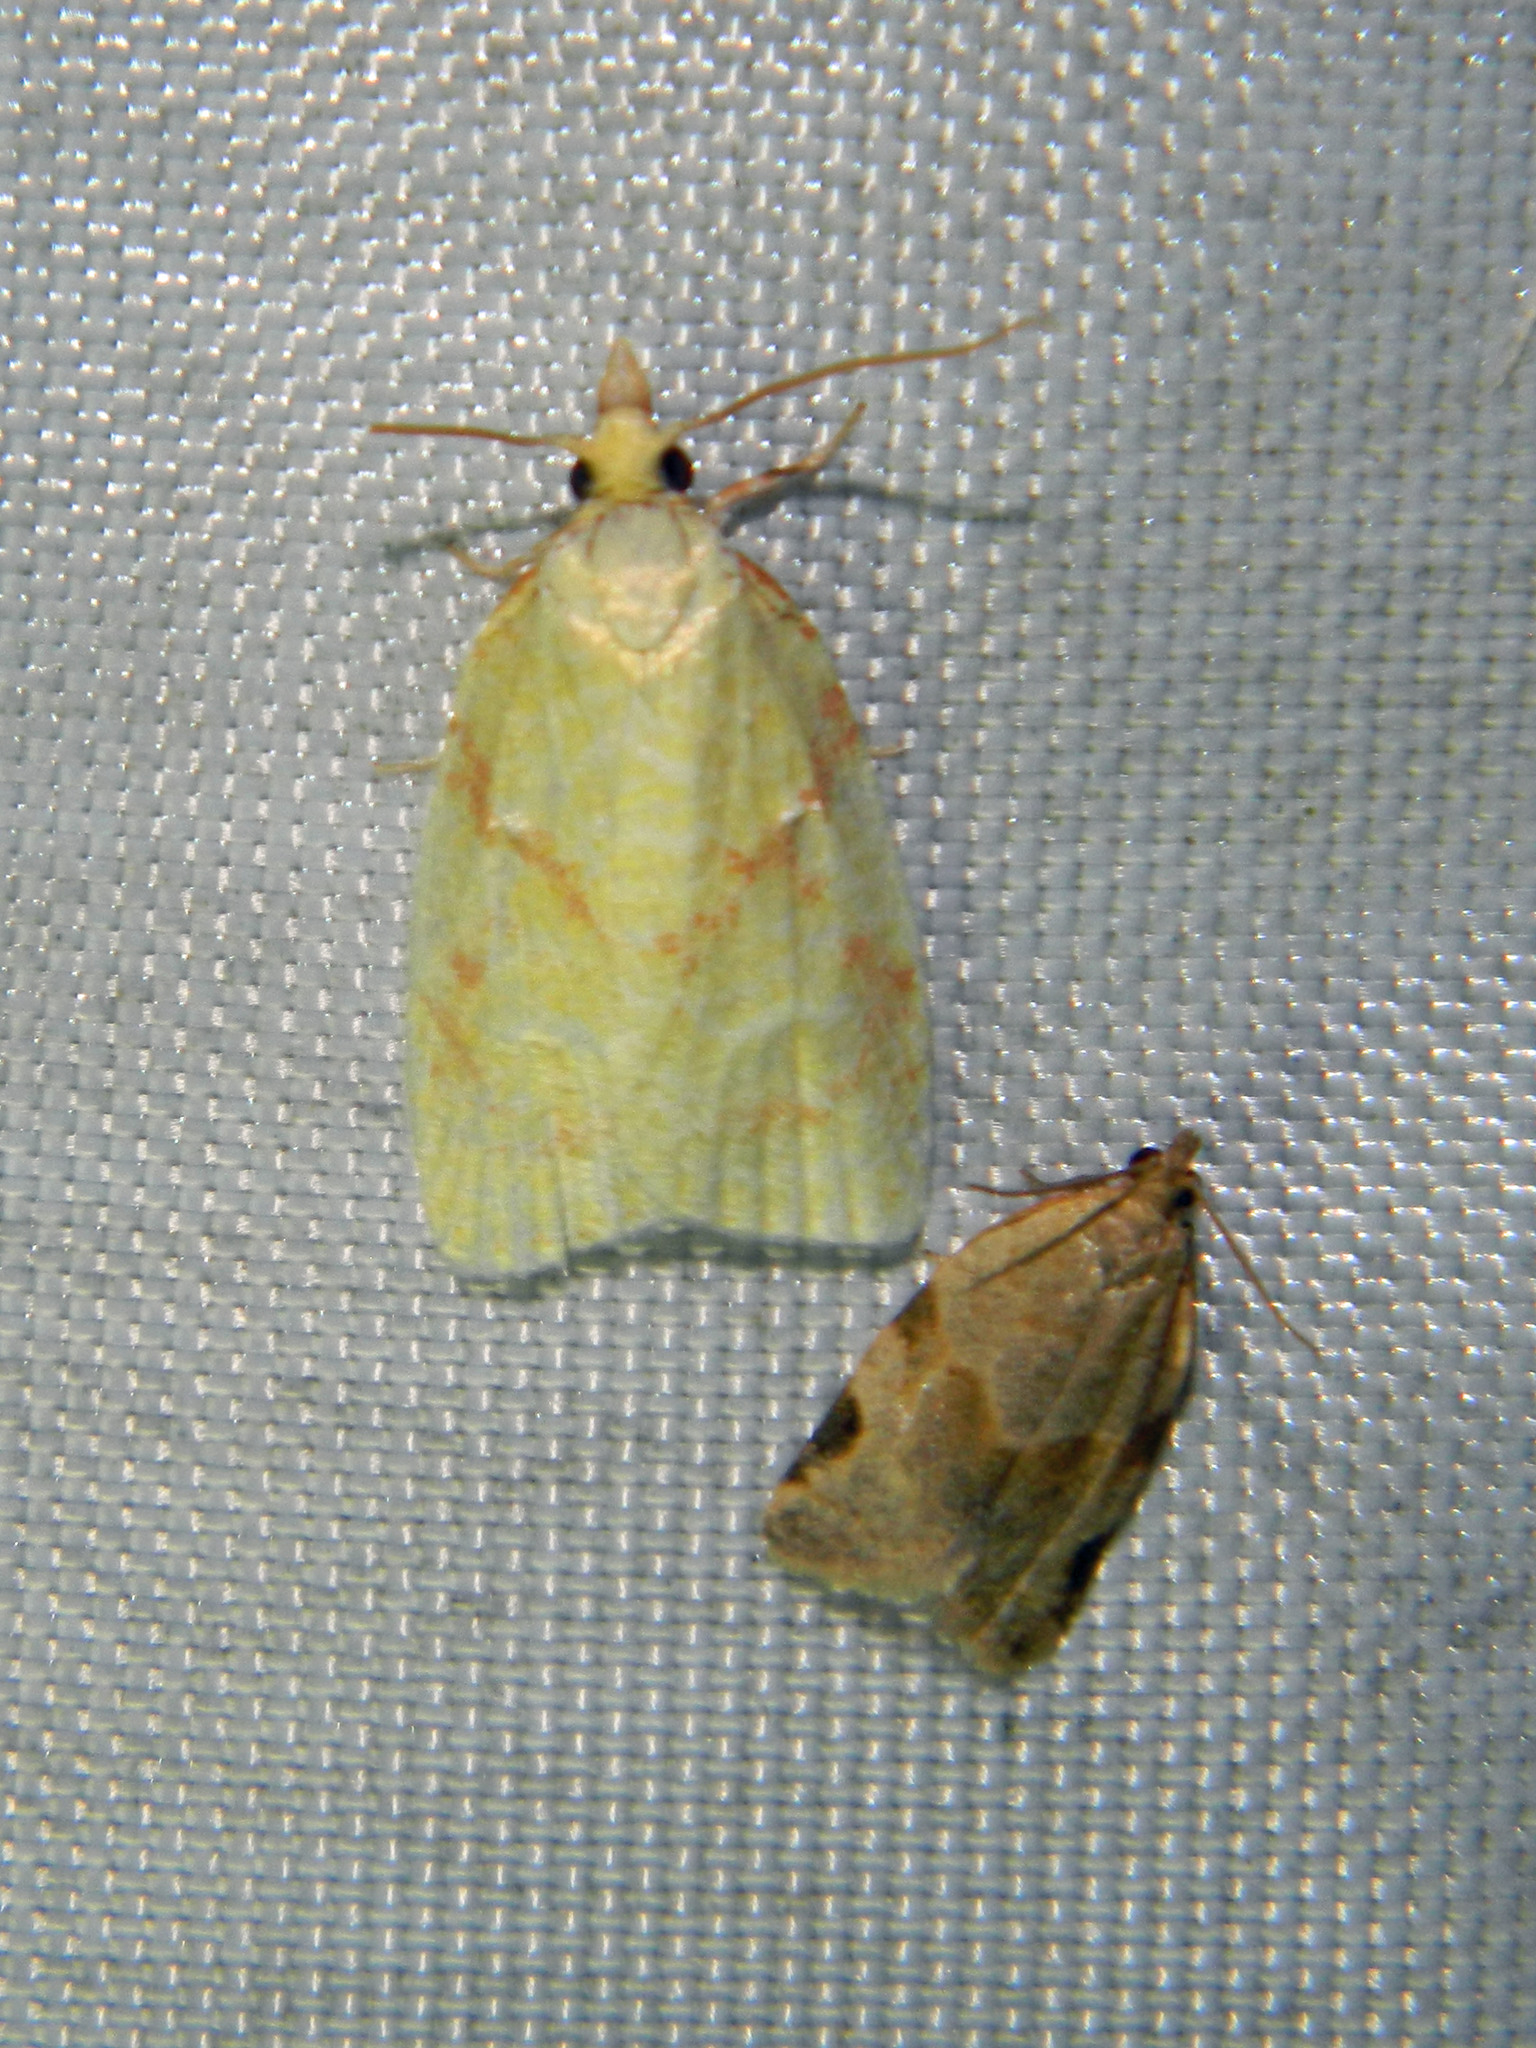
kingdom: Animalia
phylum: Arthropoda
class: Insecta
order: Lepidoptera
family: Tortricidae
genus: Clepsis
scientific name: Clepsis virescana
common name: Greenish apple moth
